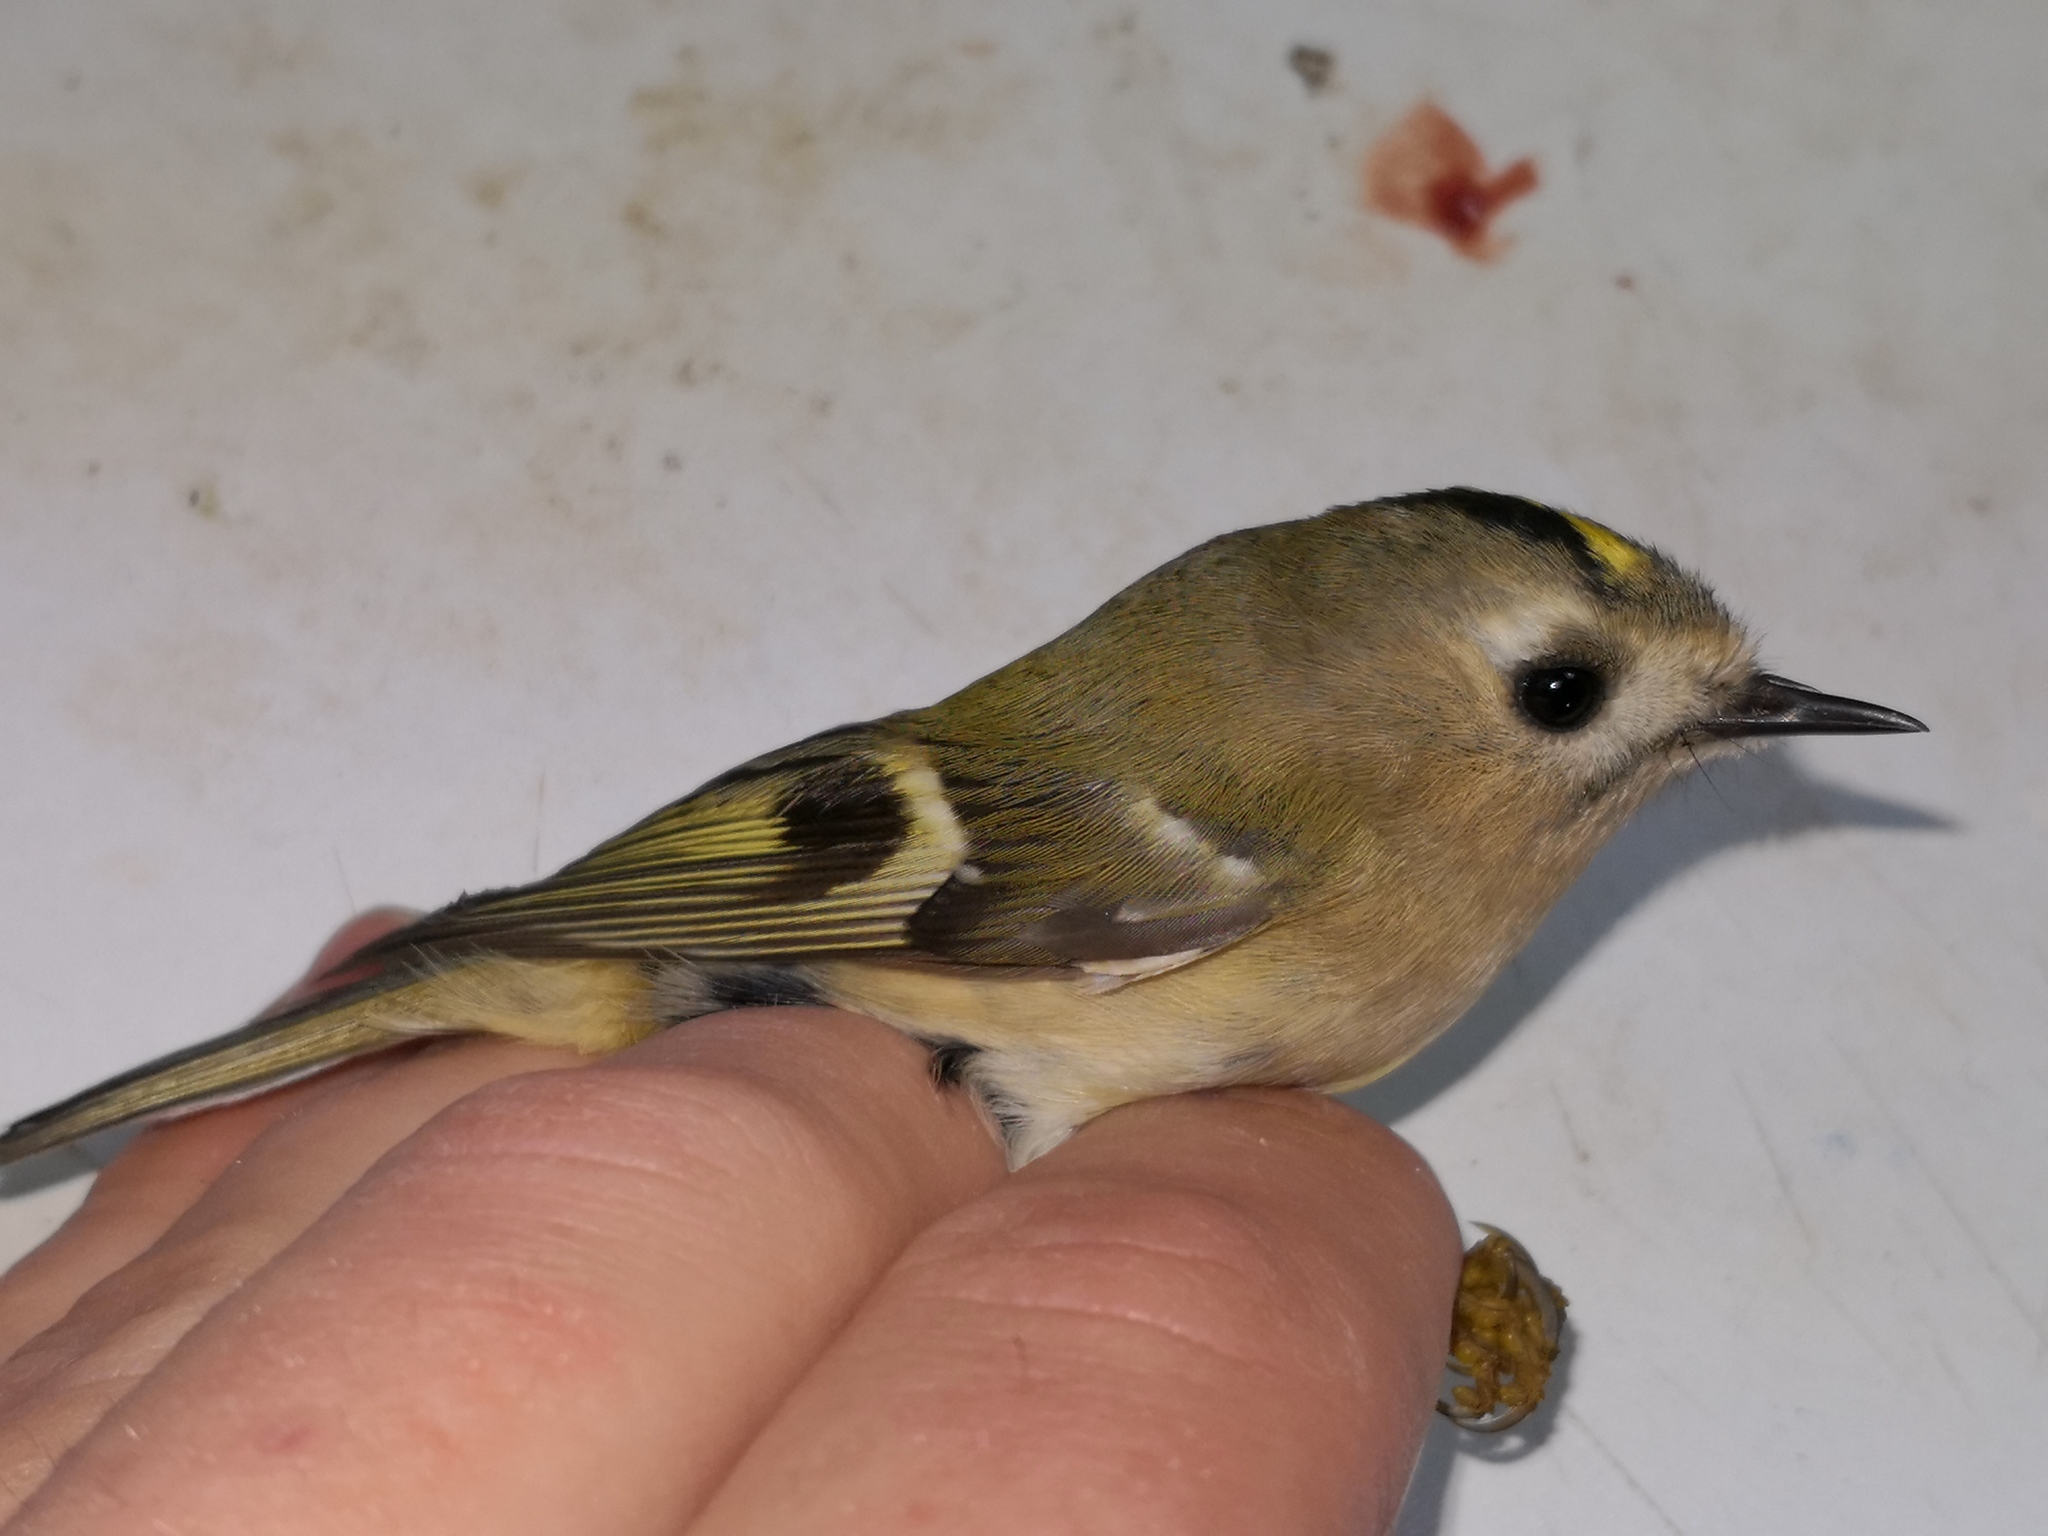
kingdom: Animalia
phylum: Chordata
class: Aves
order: Passeriformes
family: Regulidae
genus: Regulus
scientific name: Regulus regulus
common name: Goldcrest
